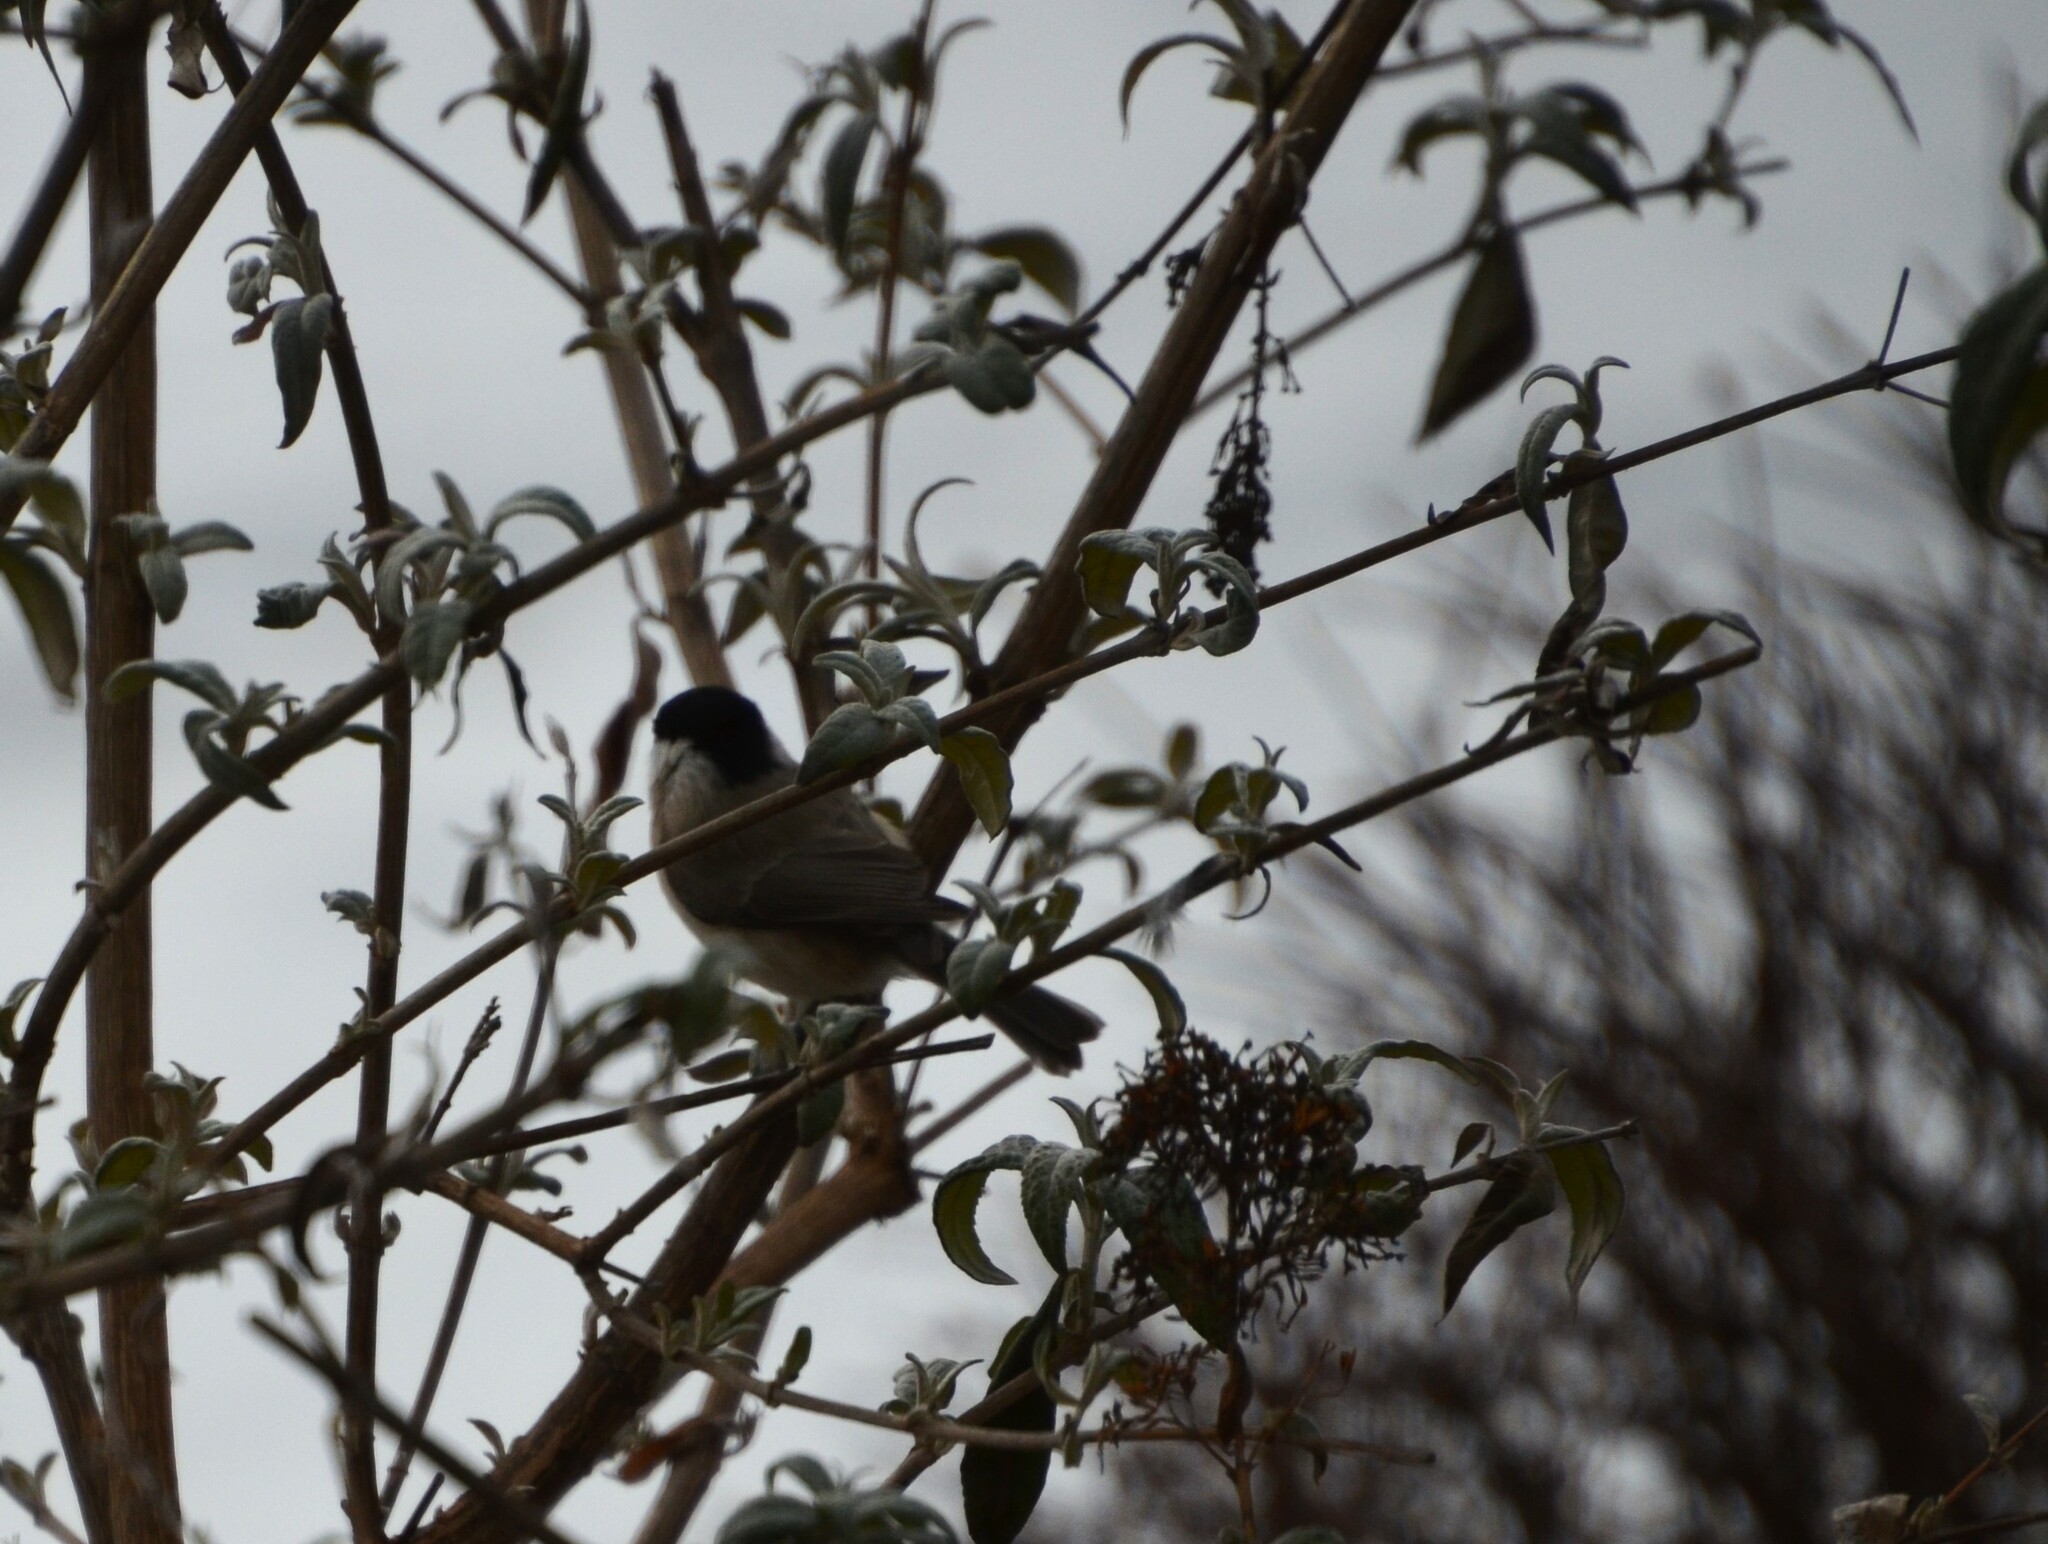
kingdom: Animalia
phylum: Chordata
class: Aves
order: Passeriformes
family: Paridae
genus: Poecile
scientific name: Poecile palustris
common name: Marsh tit
